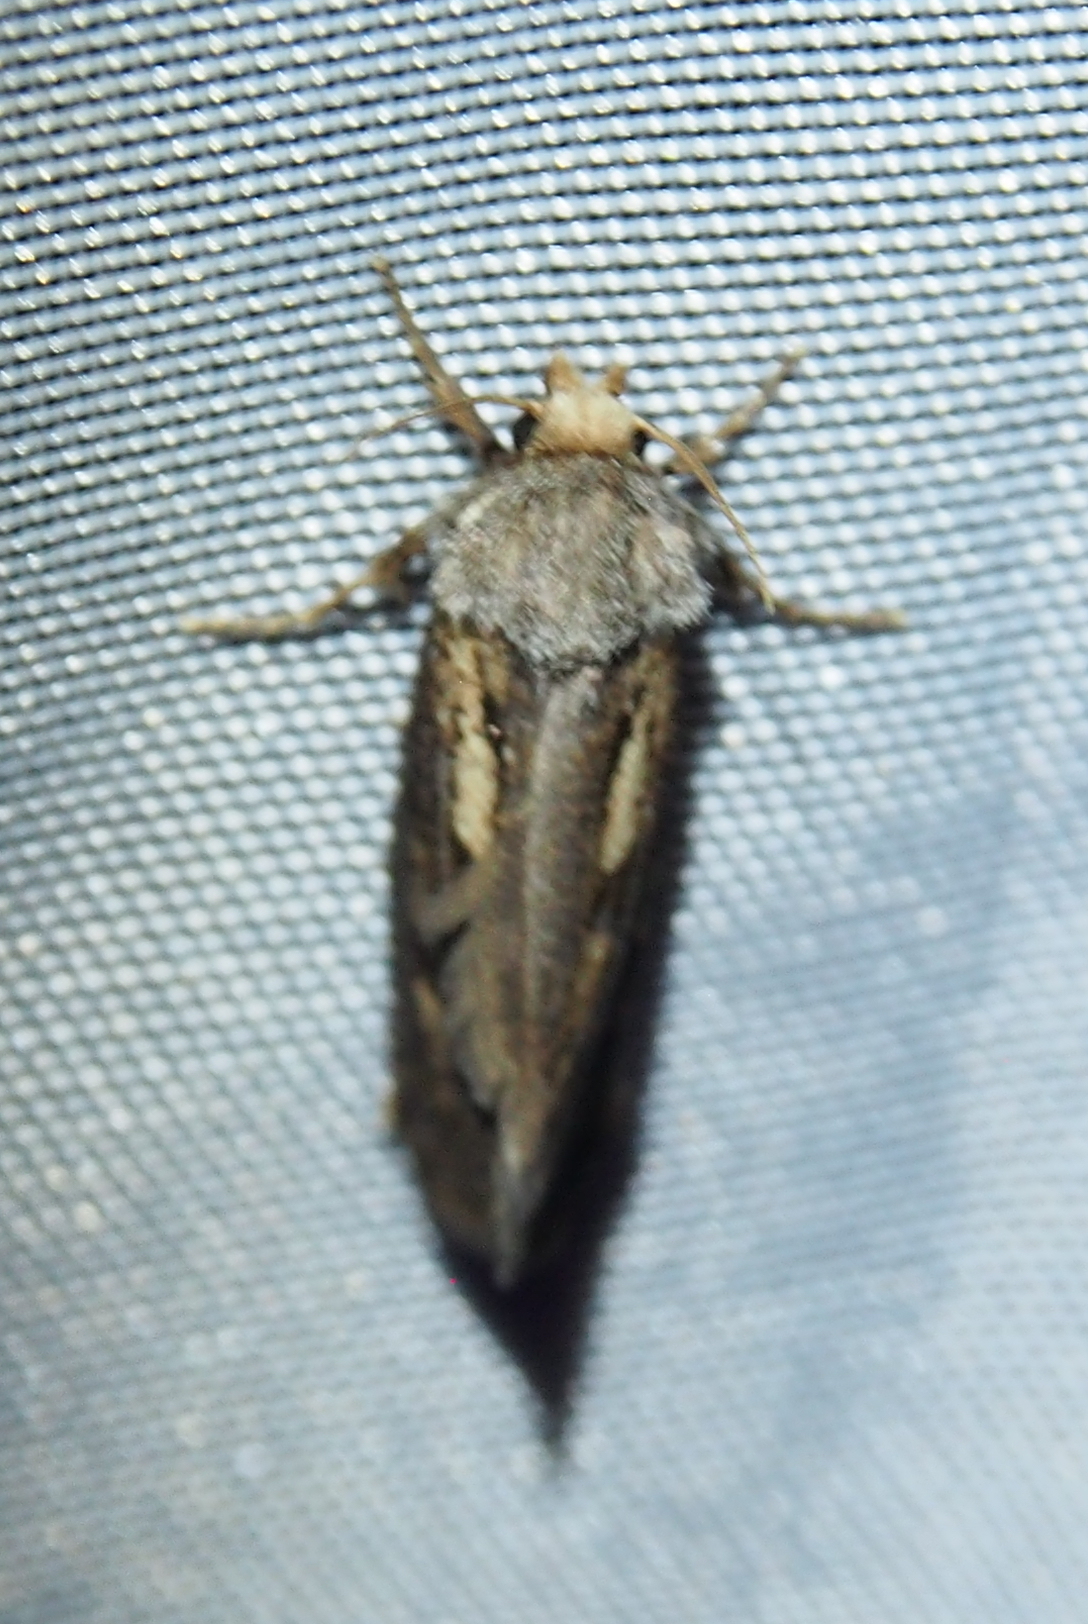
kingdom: Animalia
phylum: Arthropoda
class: Insecta
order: Lepidoptera
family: Tineidae
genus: Acrolophus
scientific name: Acrolophus popeanella
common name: Clemens' grass tubeworm moth
